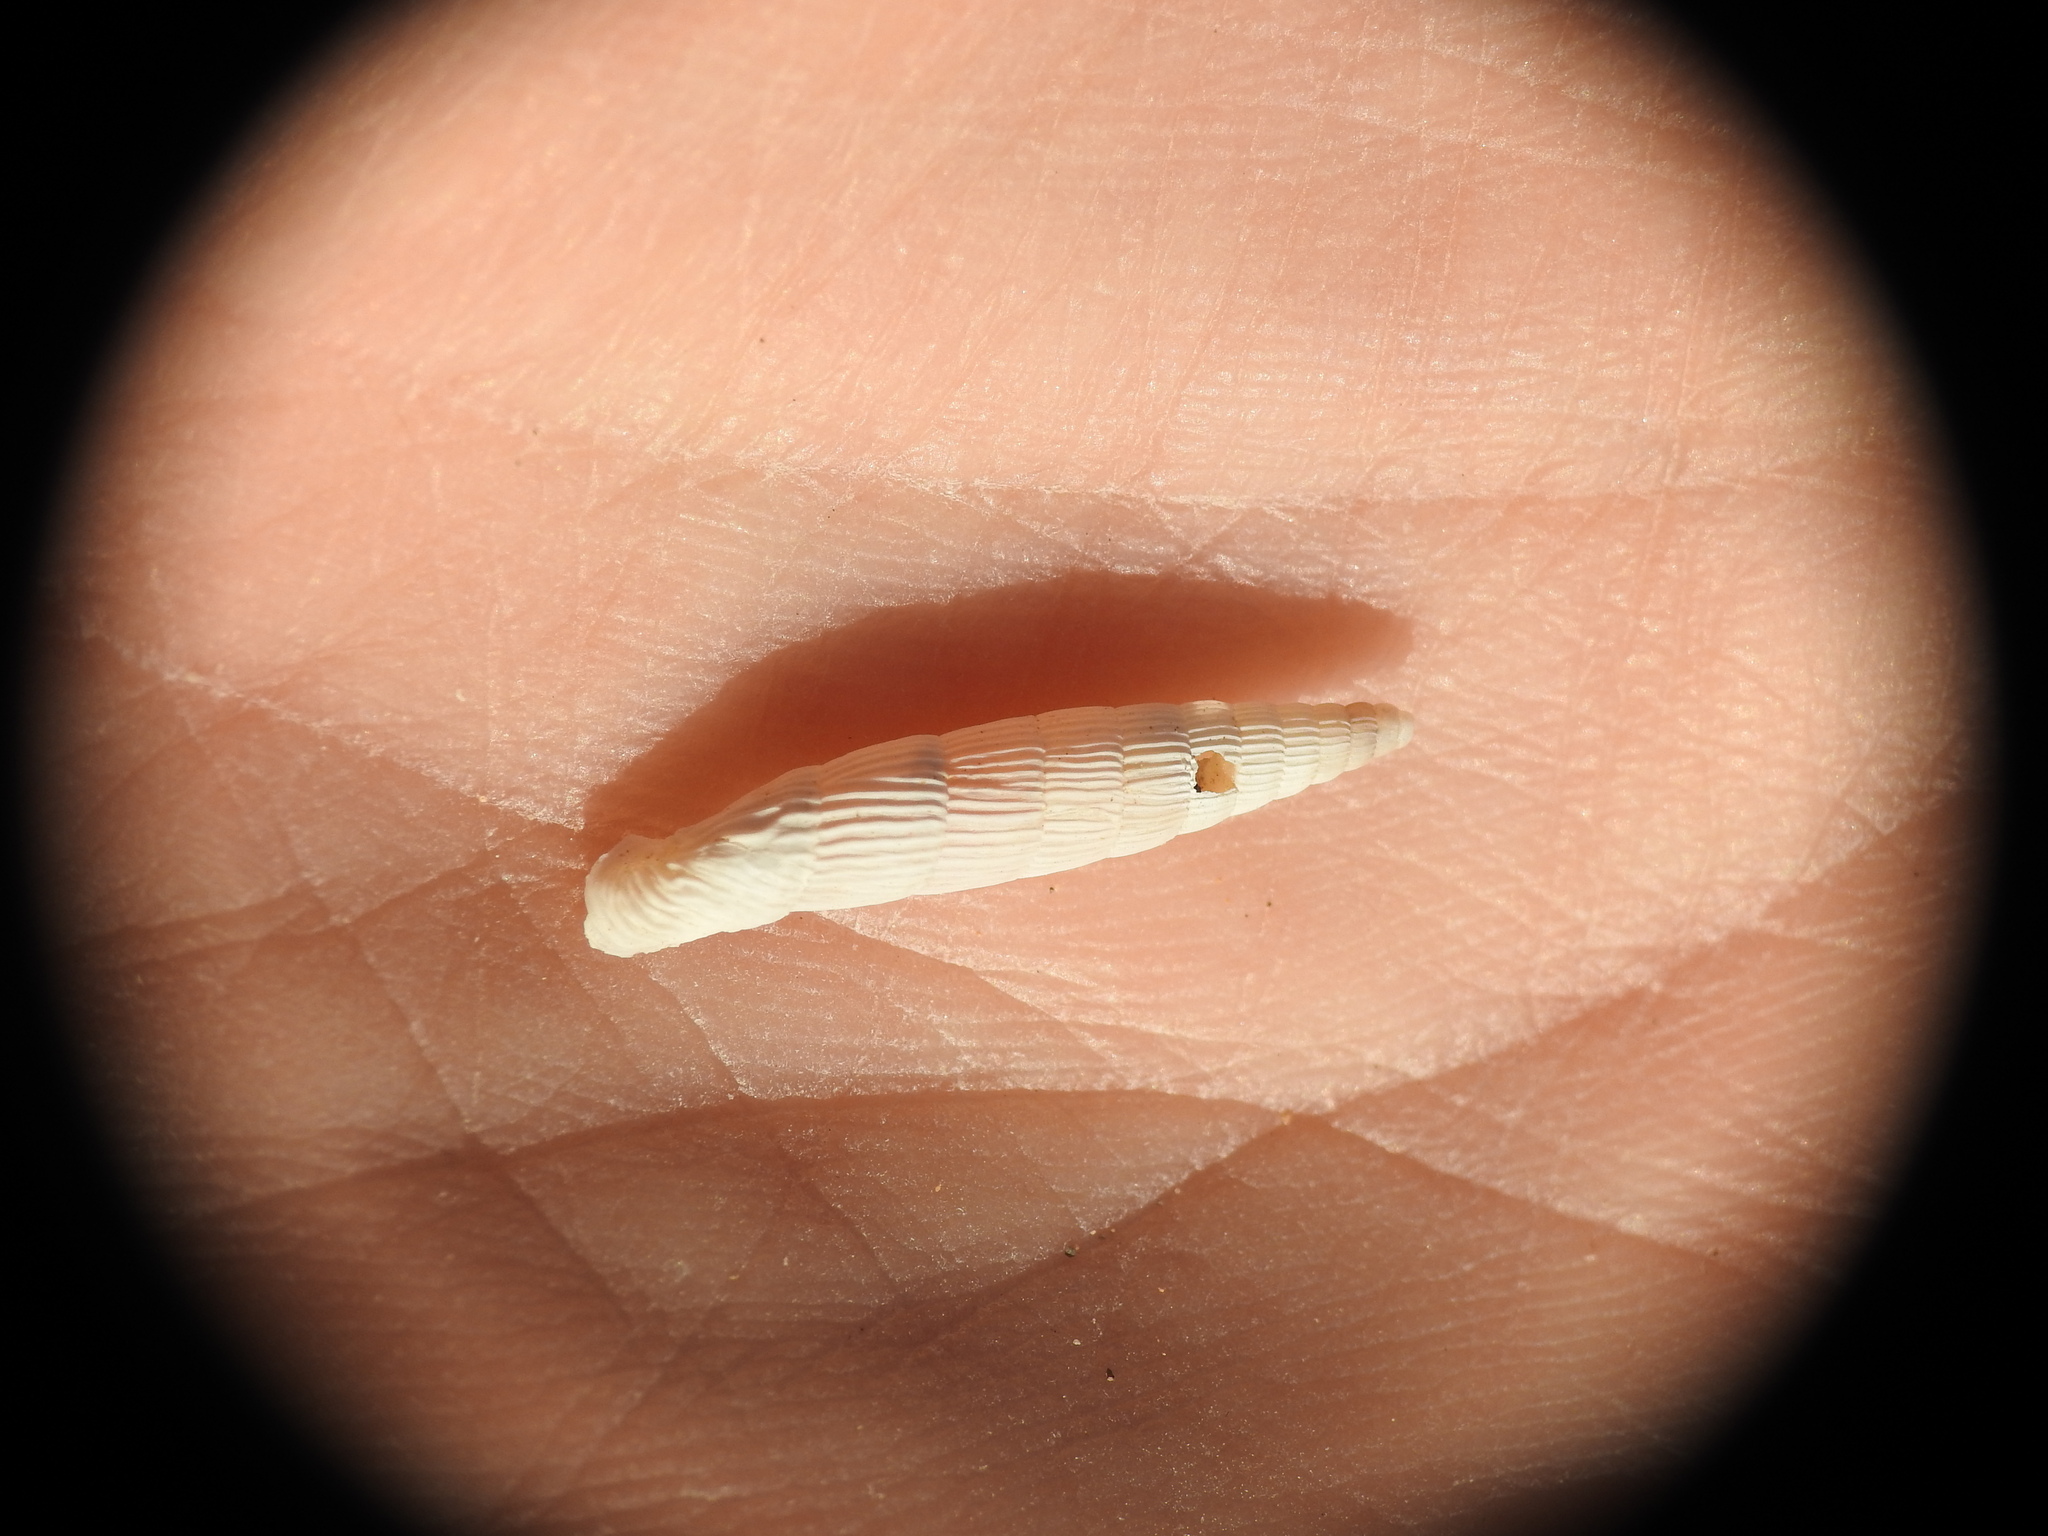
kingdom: Animalia
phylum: Mollusca
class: Gastropoda
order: Stylommatophora
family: Clausiliidae
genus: Albinaria
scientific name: Albinaria cretensis
